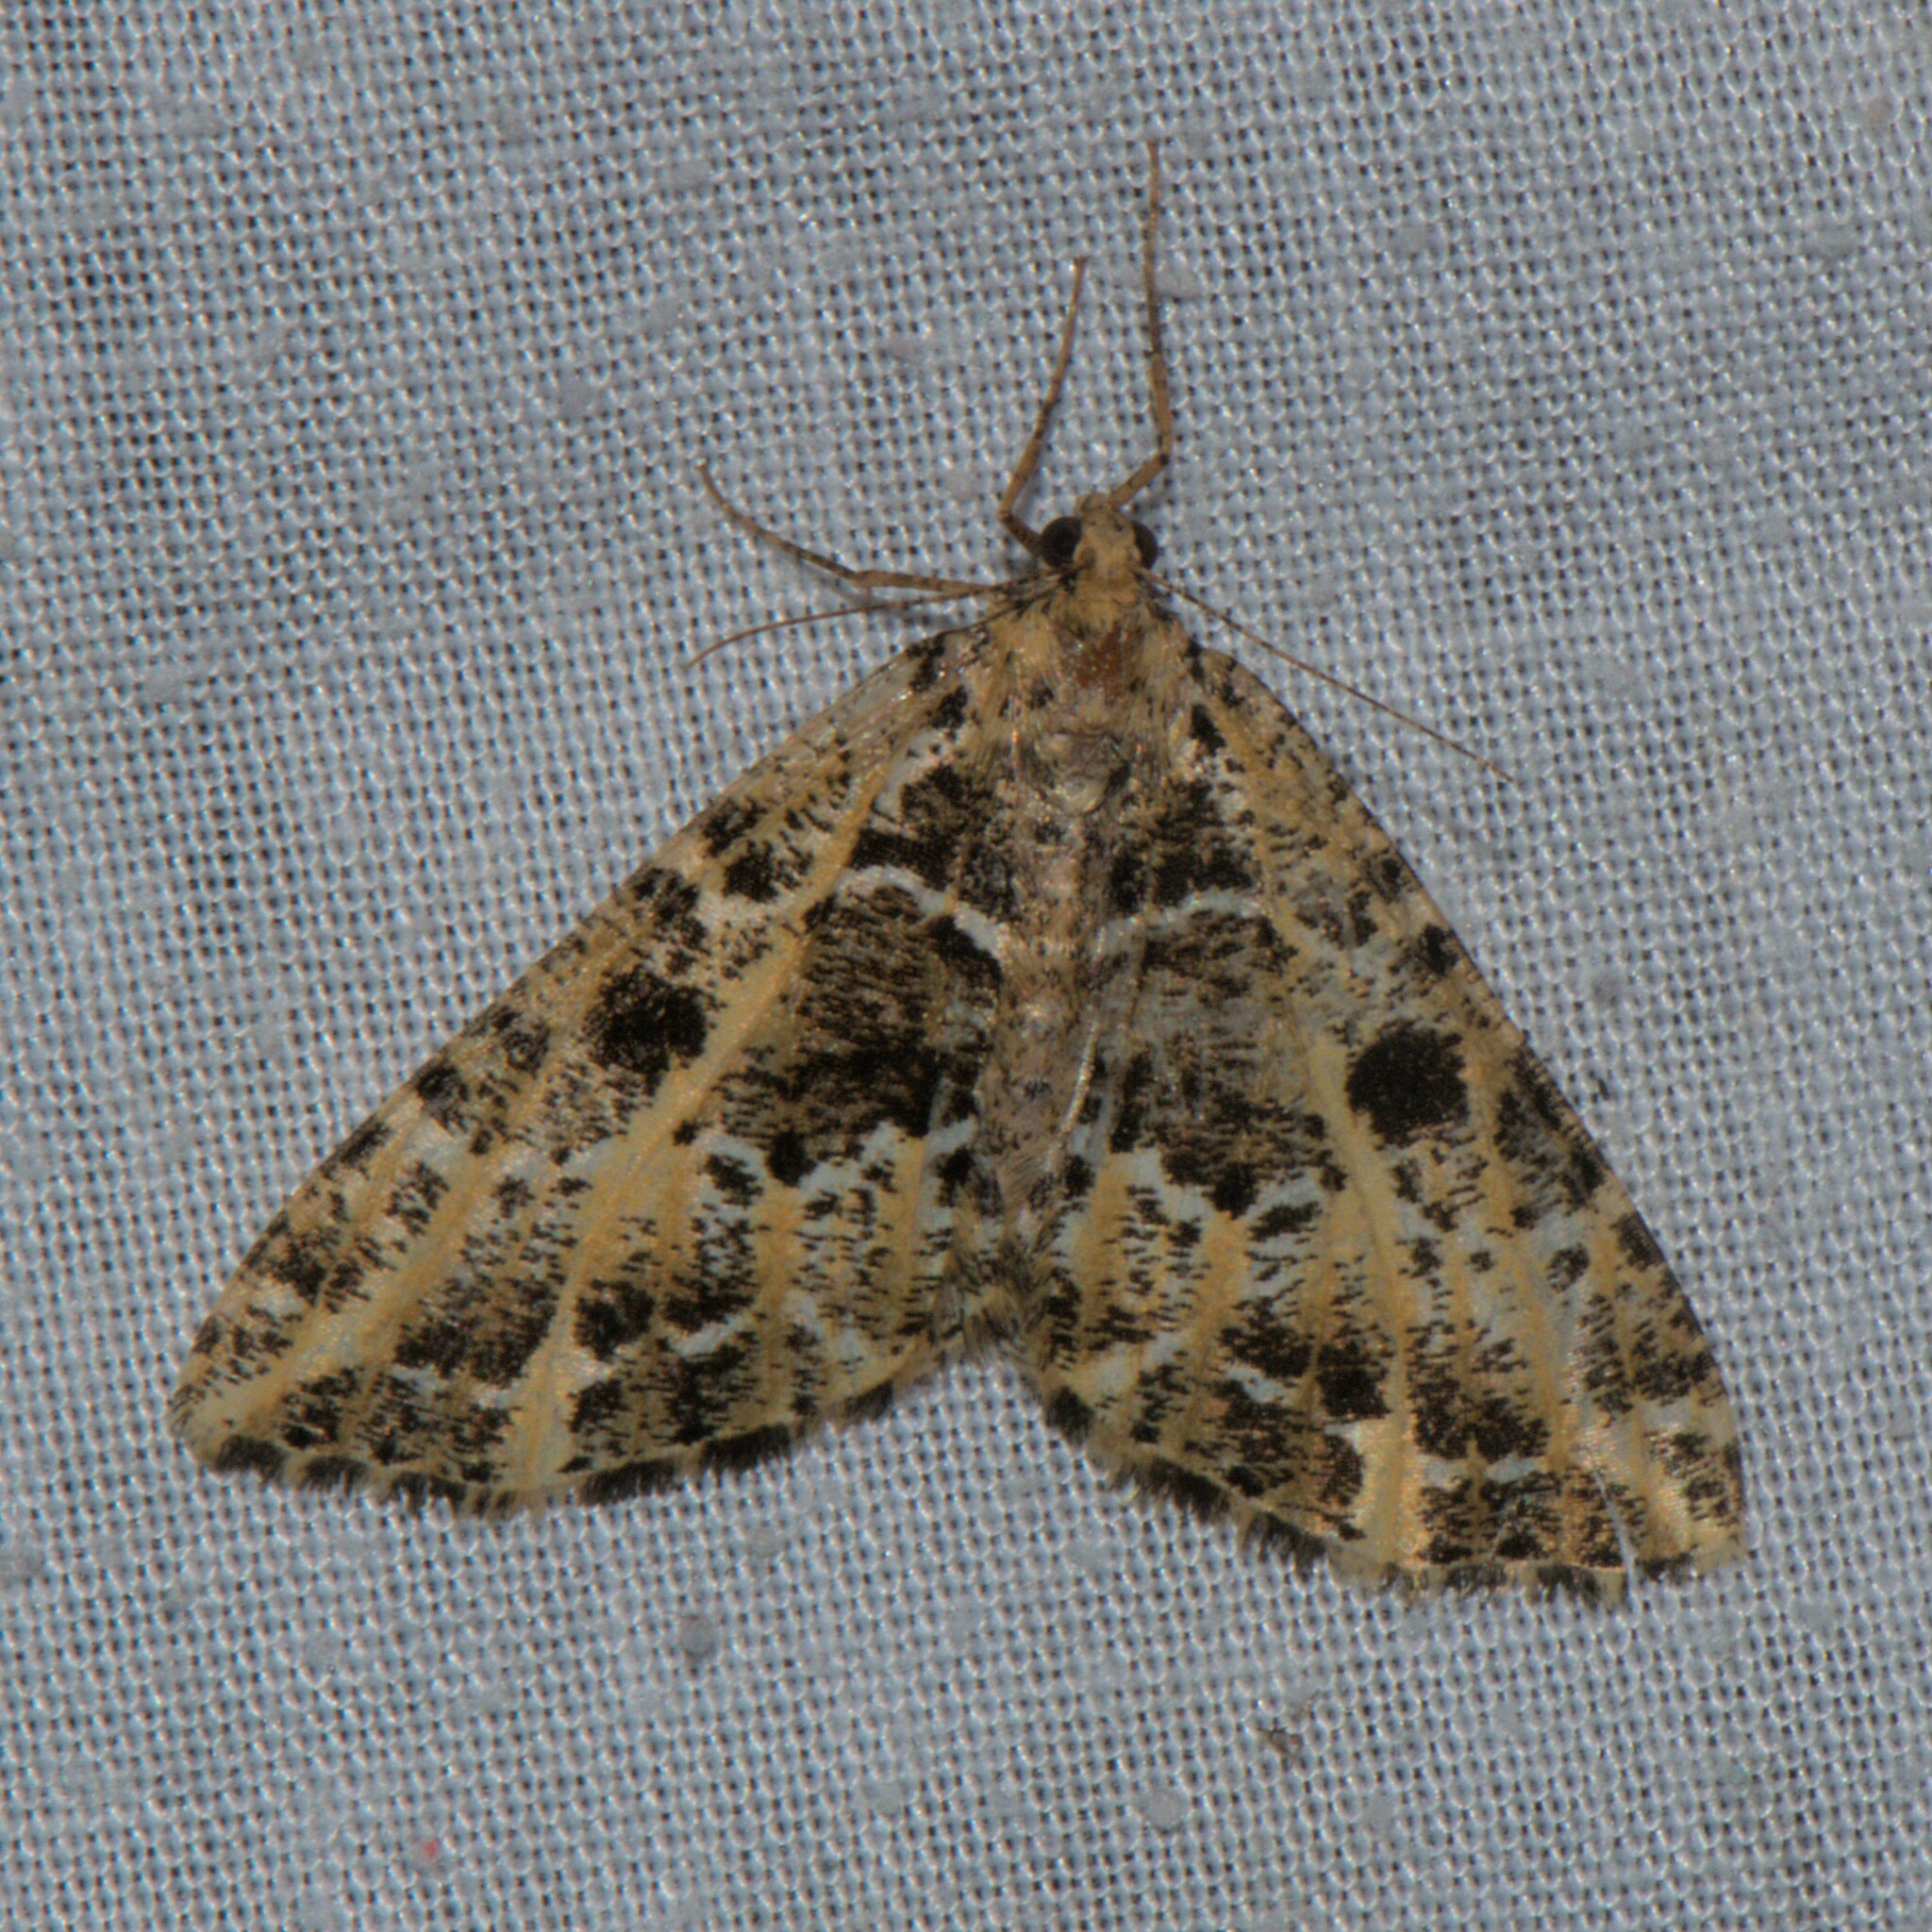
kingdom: Animalia
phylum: Arthropoda
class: Insecta
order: Lepidoptera
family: Geometridae
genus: Arichanna
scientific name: Arichanna tramesata
